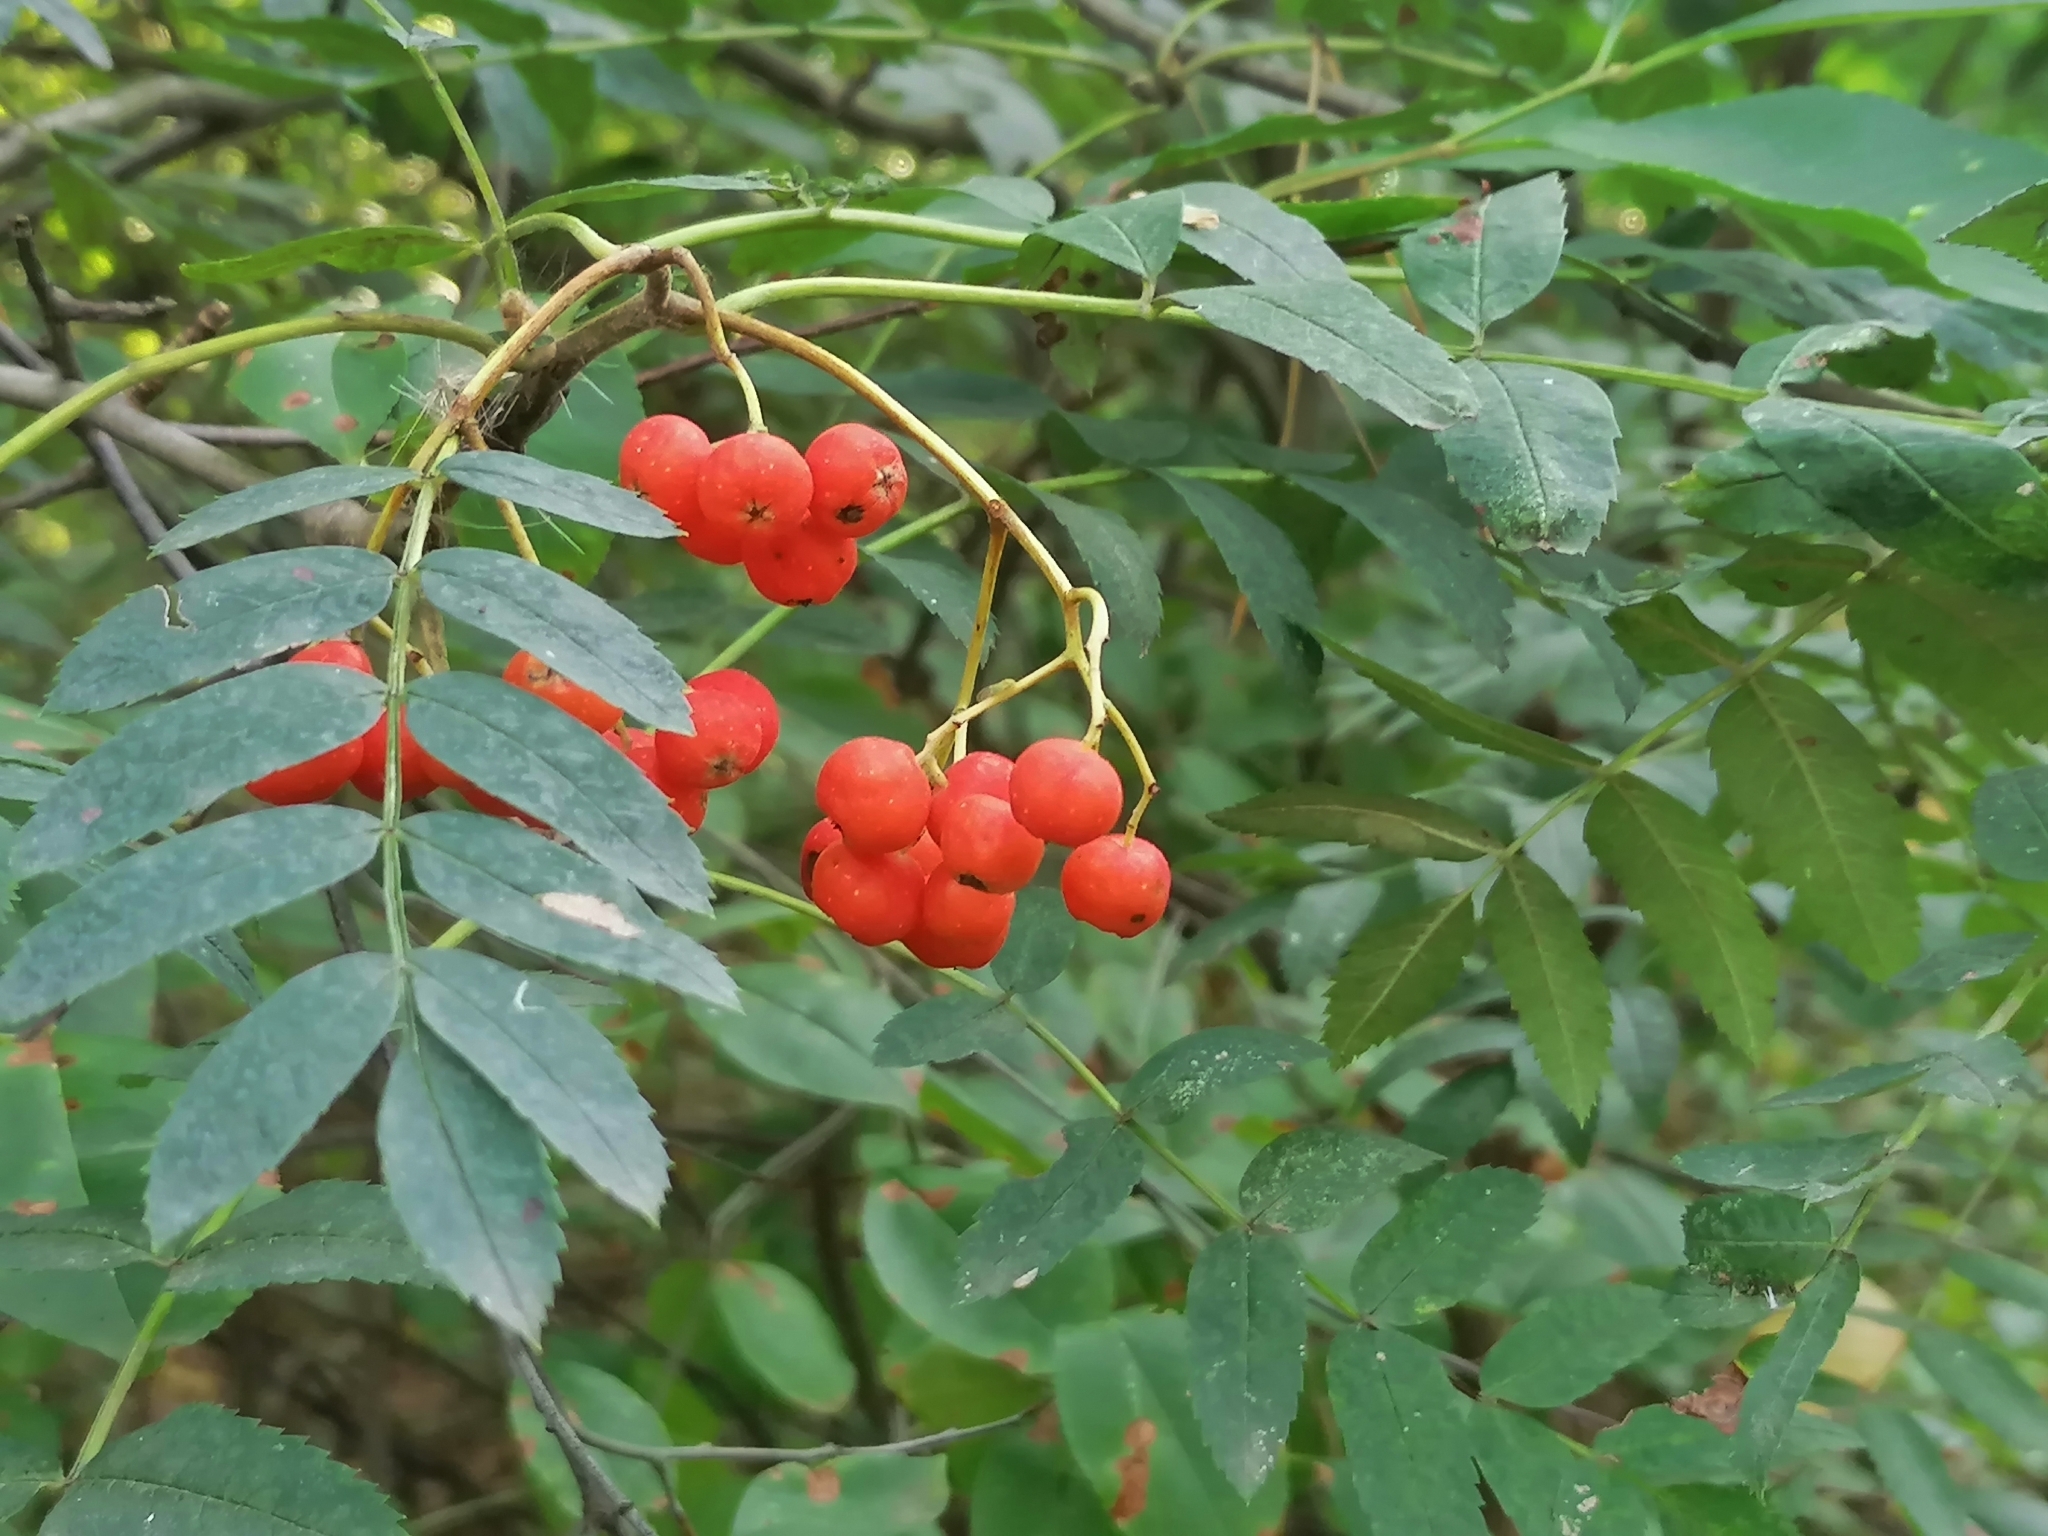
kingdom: Plantae
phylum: Tracheophyta
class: Magnoliopsida
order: Rosales
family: Rosaceae
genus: Sorbus
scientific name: Sorbus aucuparia
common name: Rowan
